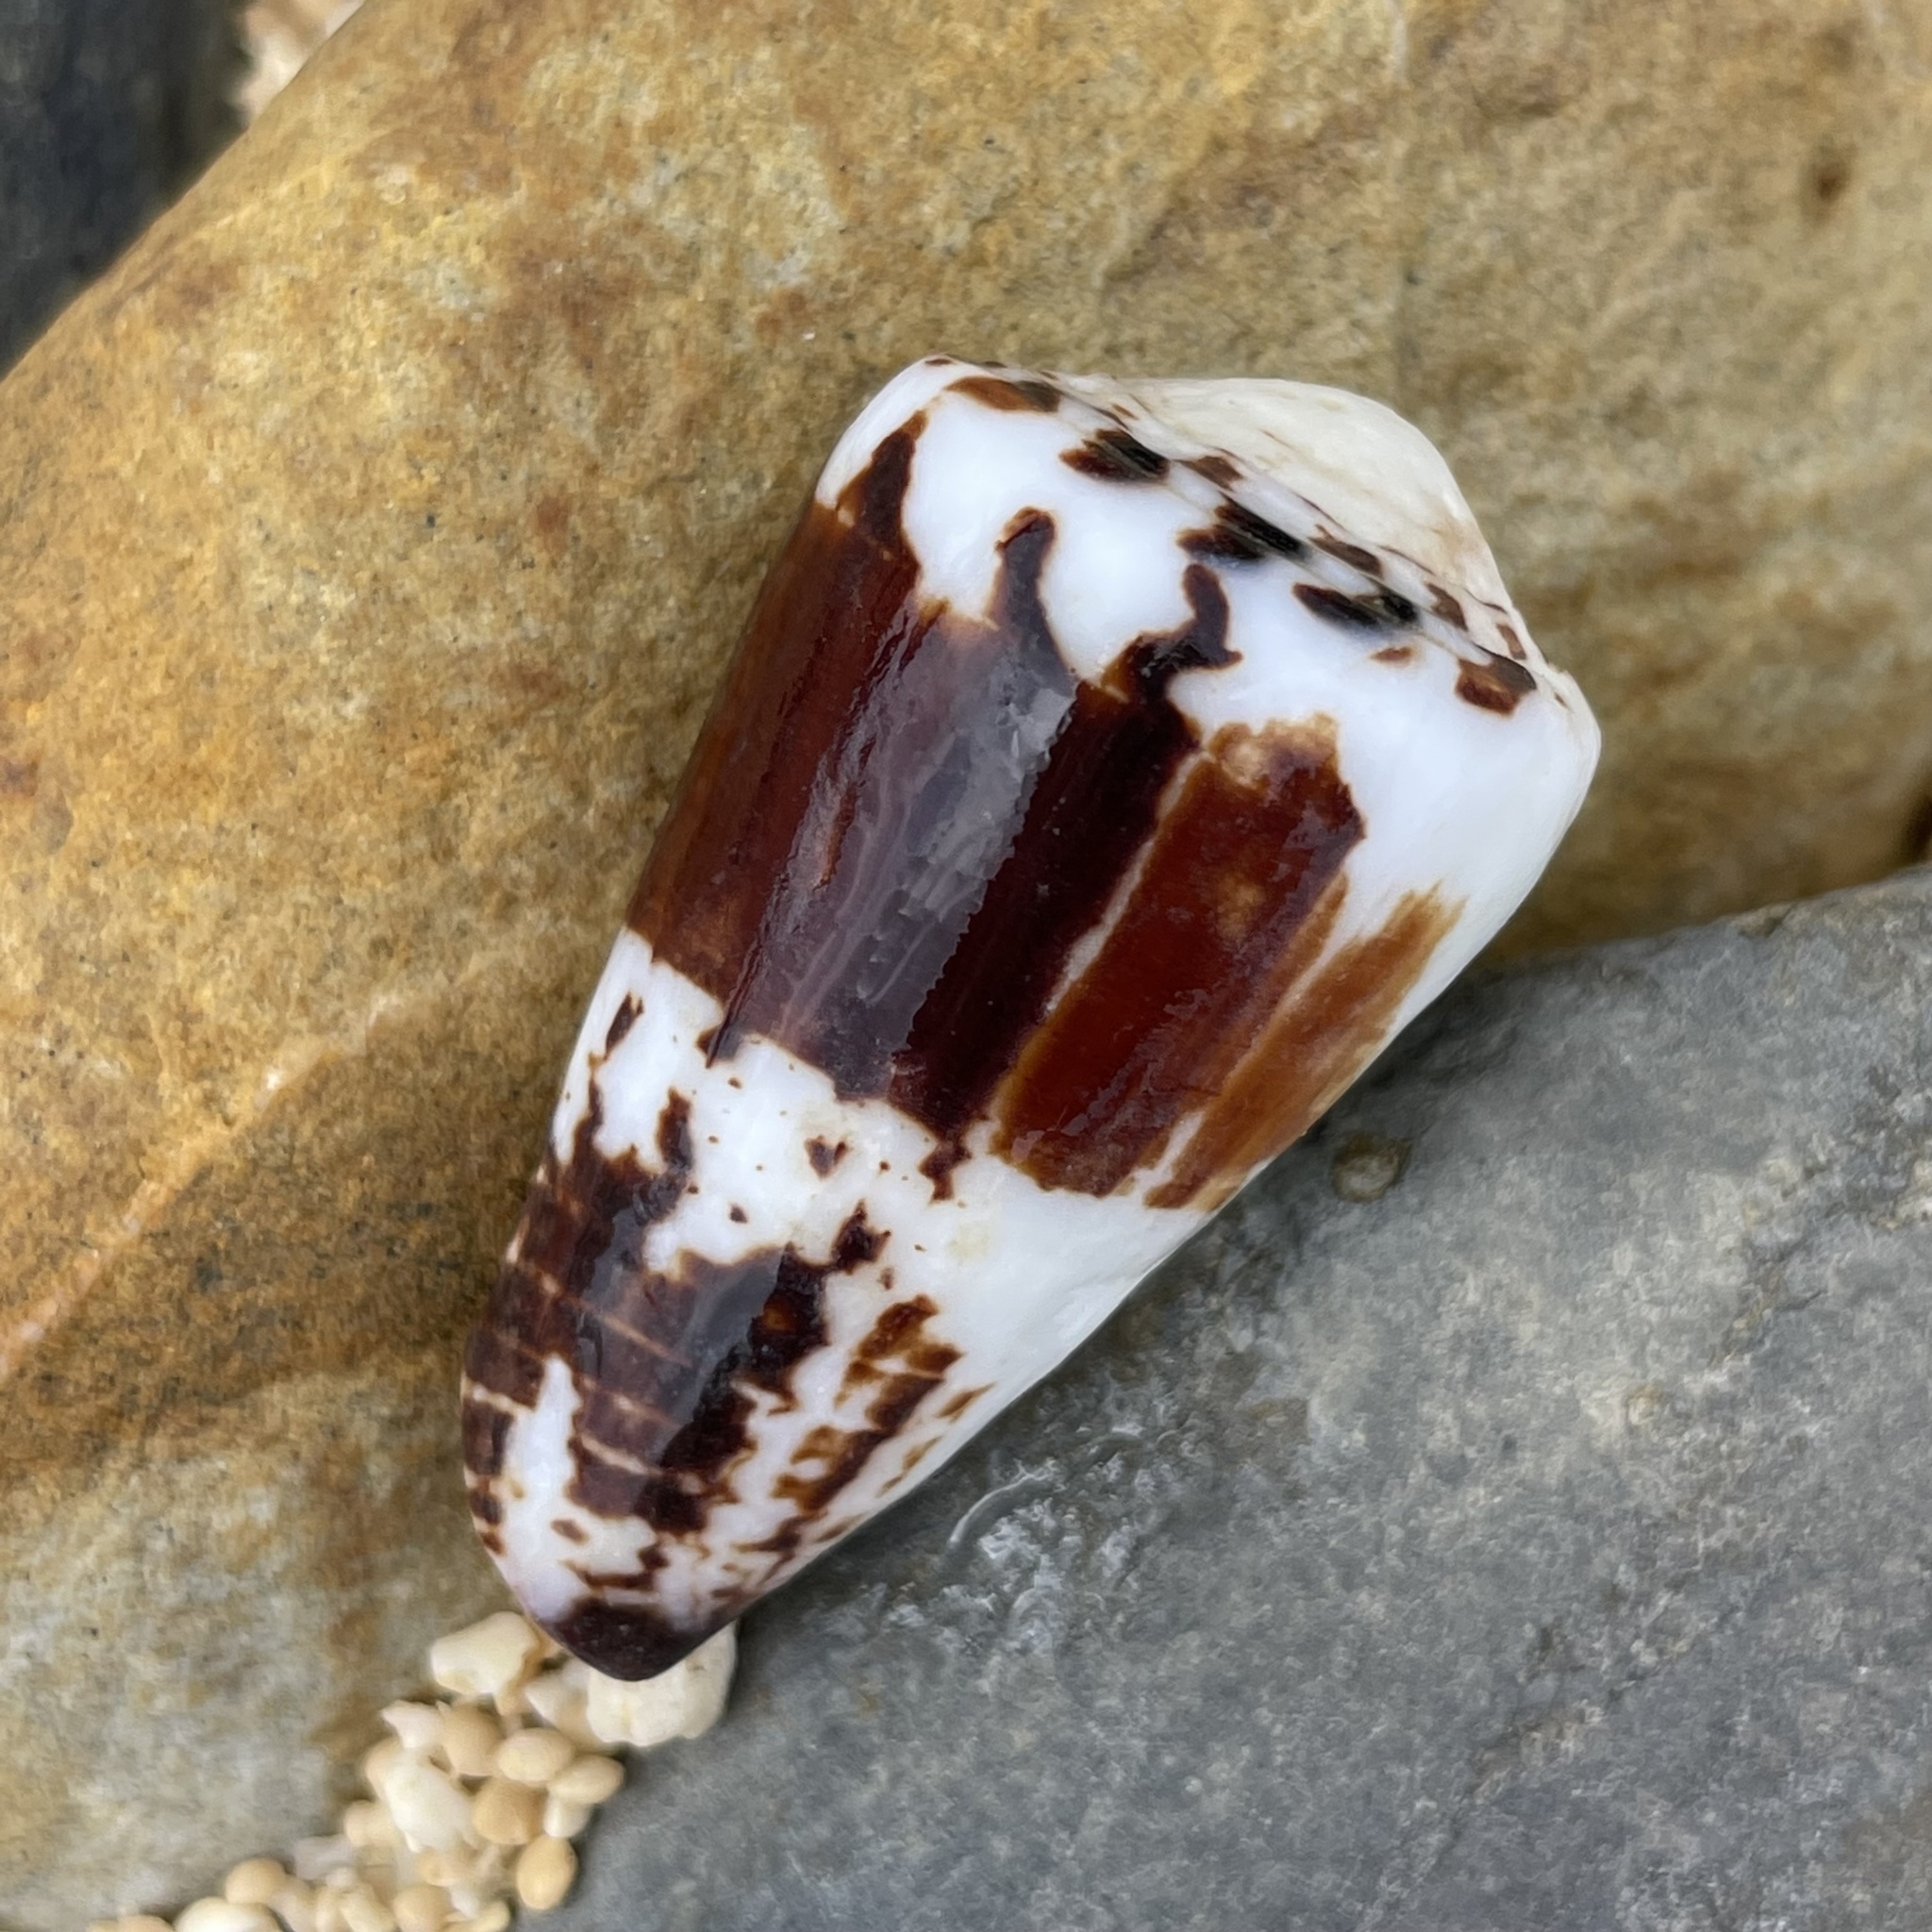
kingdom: Animalia
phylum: Mollusca
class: Gastropoda
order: Neogastropoda
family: Conidae
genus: Conus
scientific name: Conus planorbis
